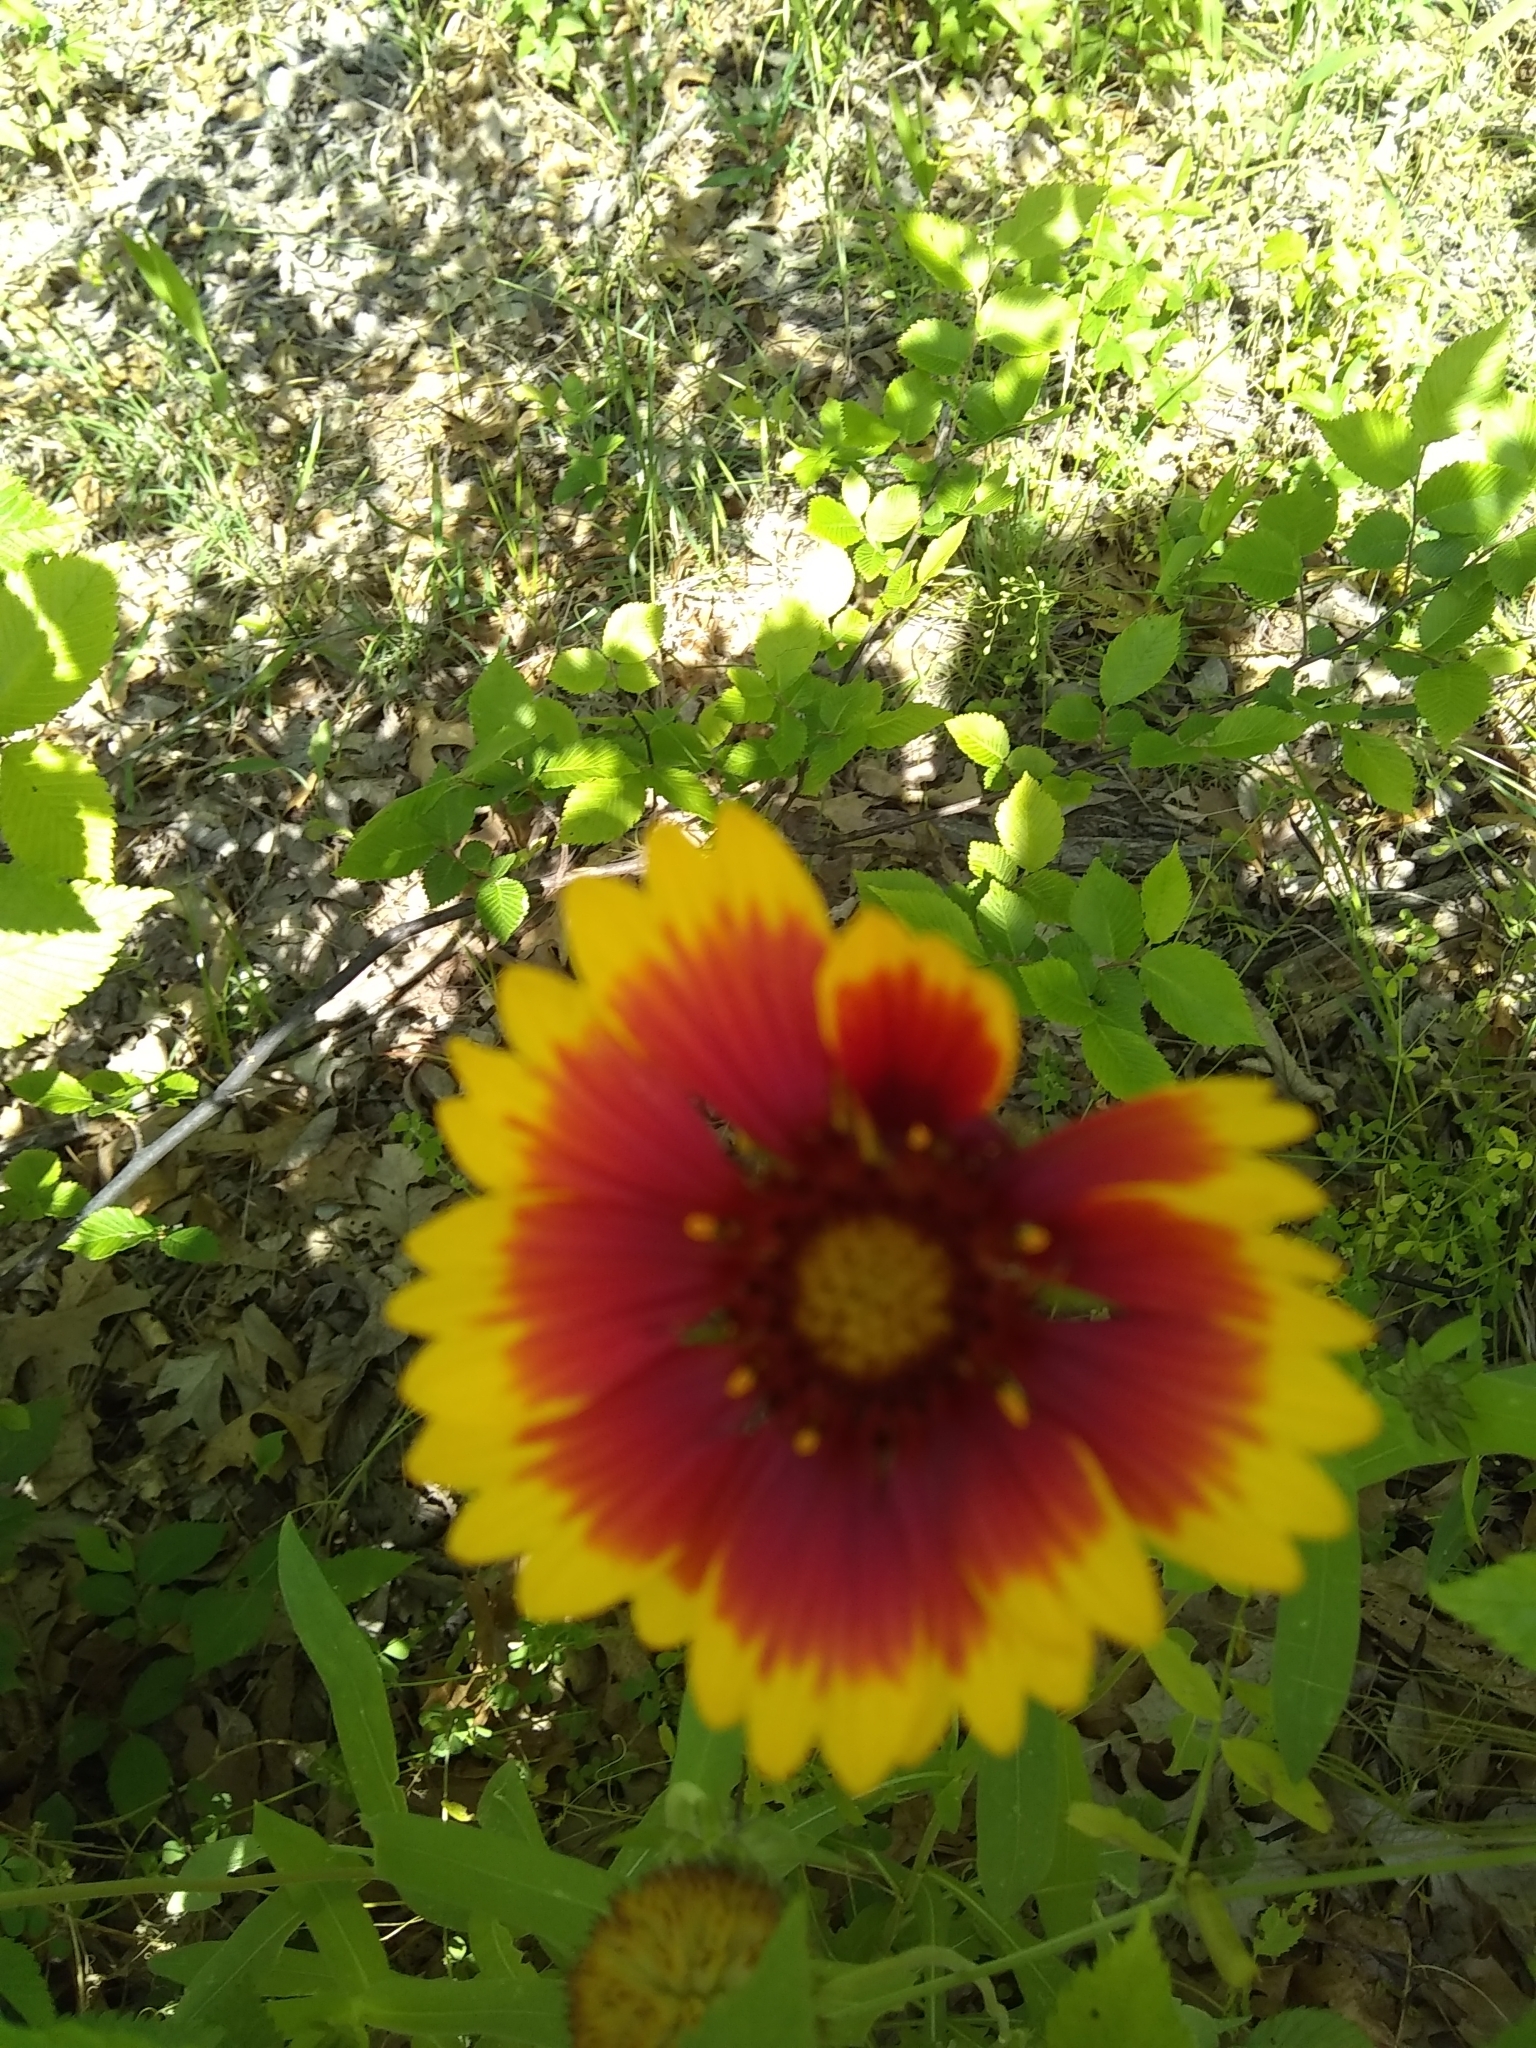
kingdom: Plantae
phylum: Tracheophyta
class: Magnoliopsida
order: Asterales
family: Asteraceae
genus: Gaillardia
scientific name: Gaillardia pulchella
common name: Firewheel
